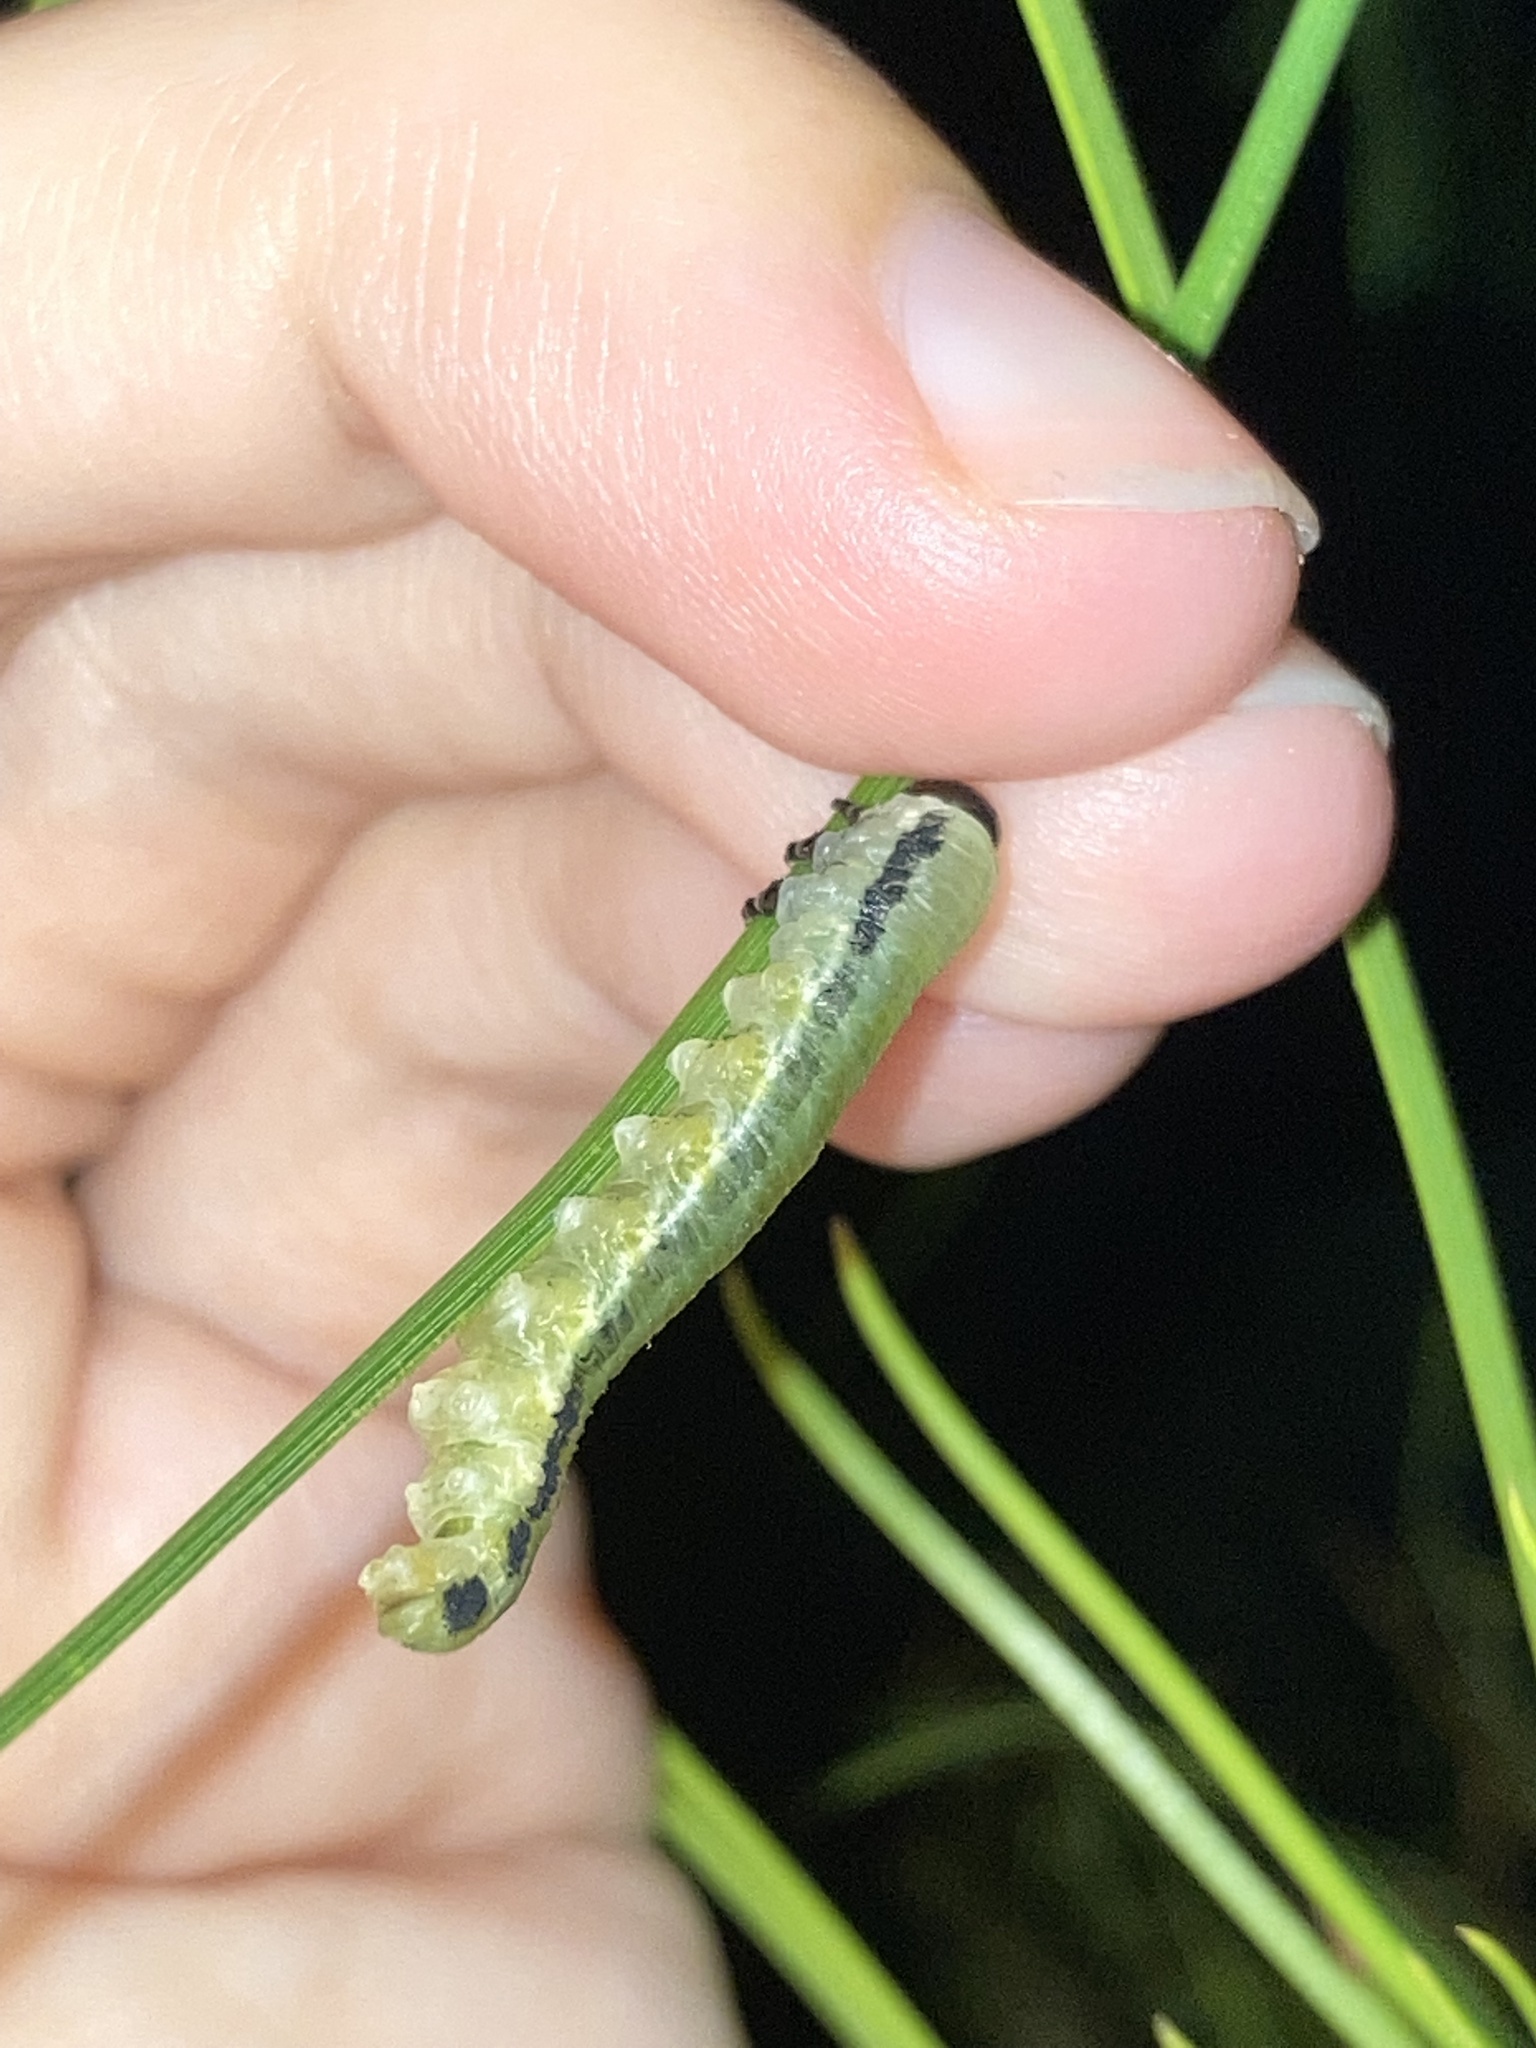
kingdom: Animalia
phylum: Arthropoda
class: Insecta
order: Hymenoptera
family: Diprionidae
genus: Neodiprion
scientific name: Neodiprion merkeli
